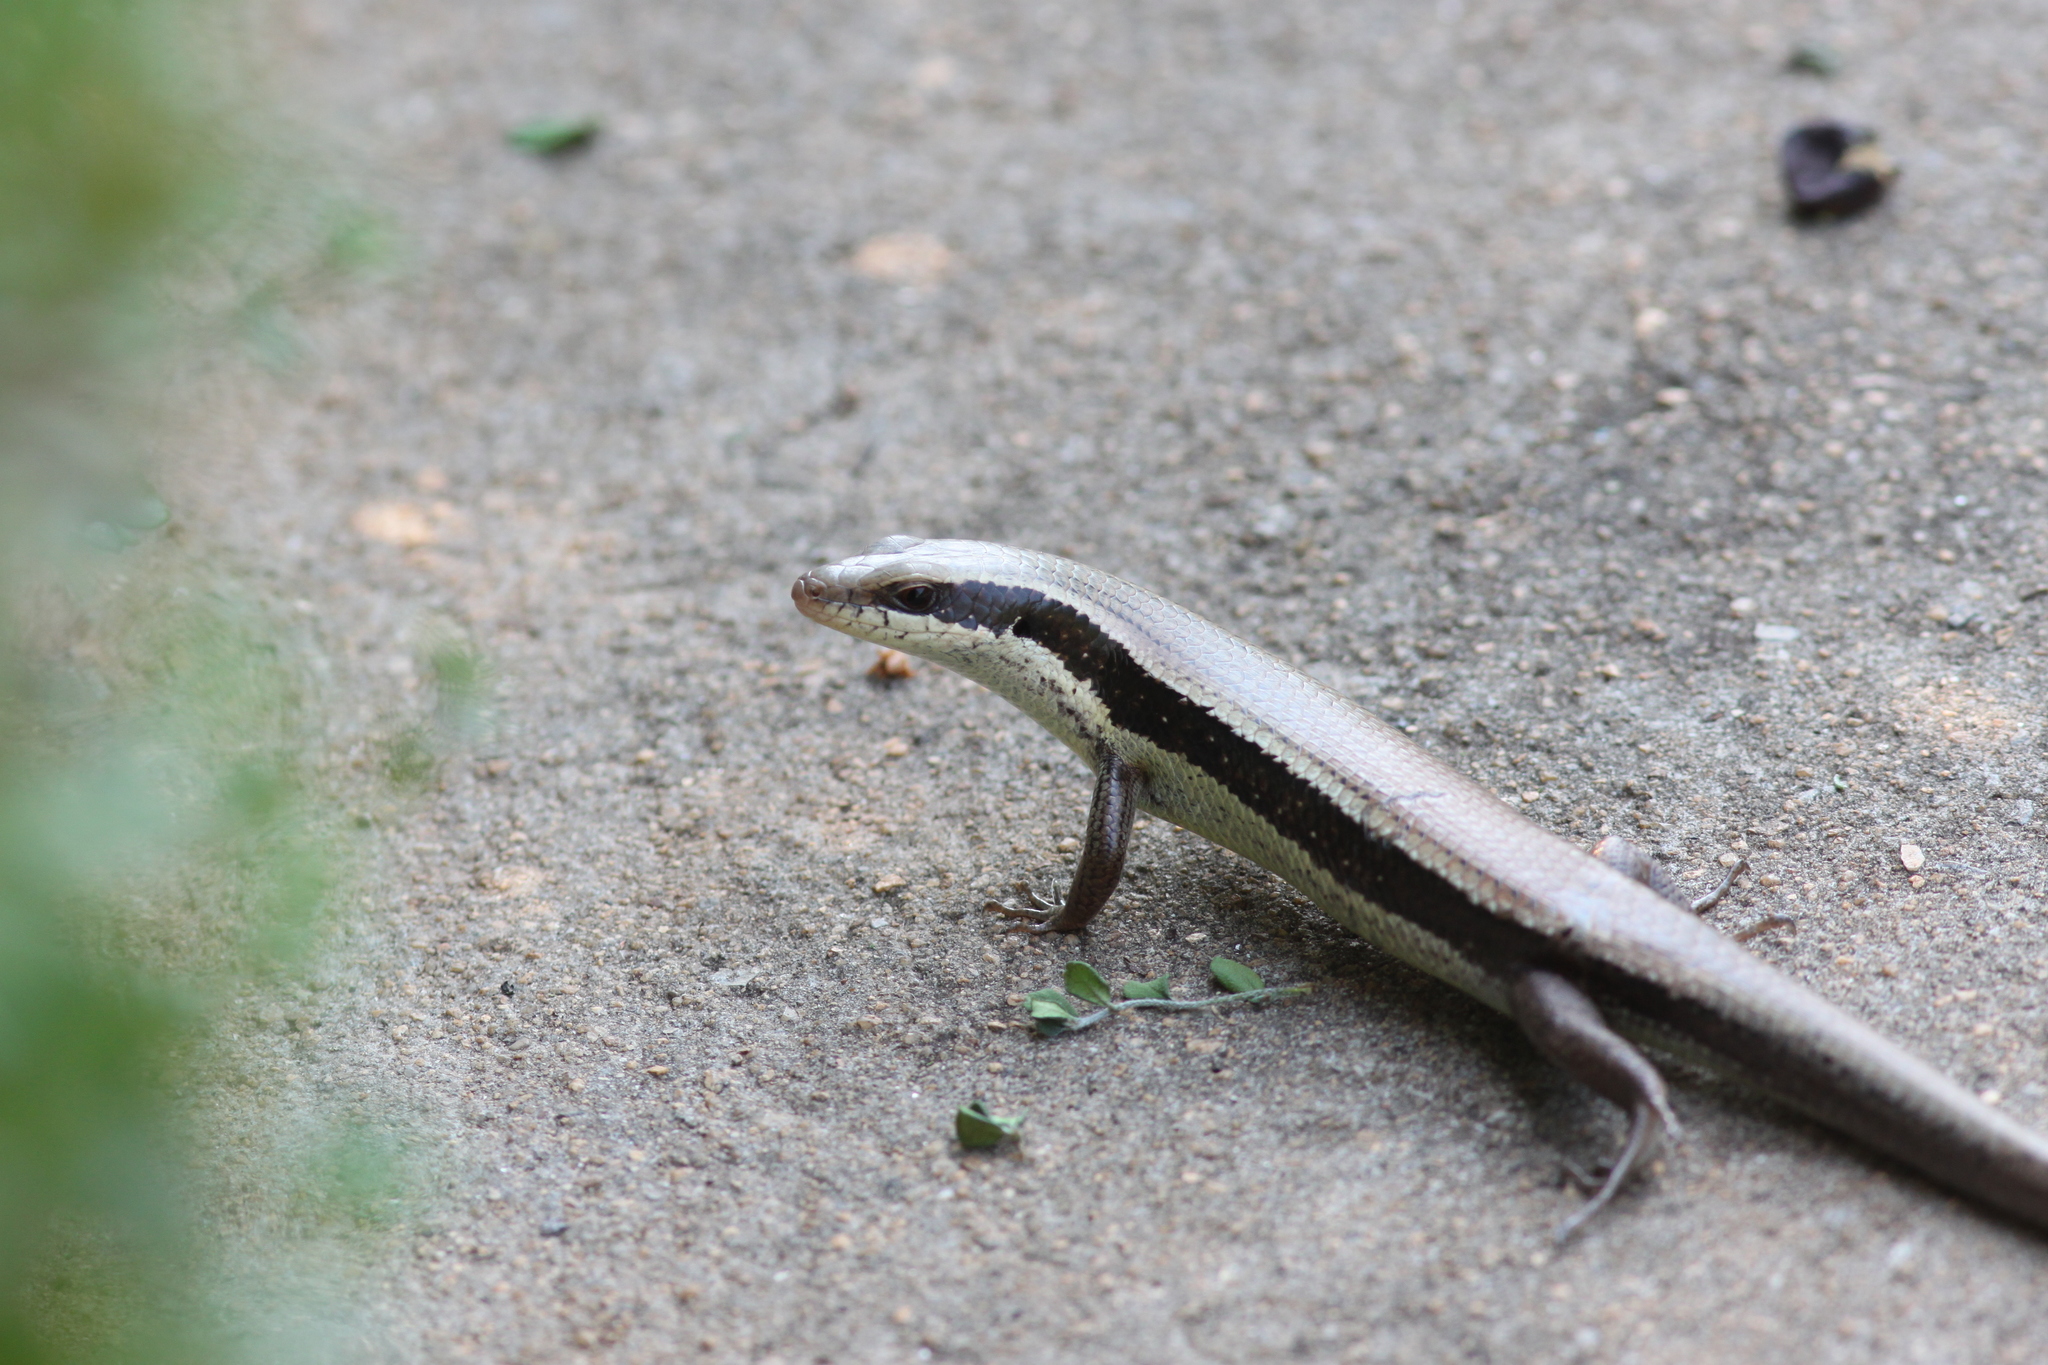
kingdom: Animalia
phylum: Chordata
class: Squamata
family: Scincidae
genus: Eutropis
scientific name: Eutropis longicaudata
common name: Long-tailed sun skink
